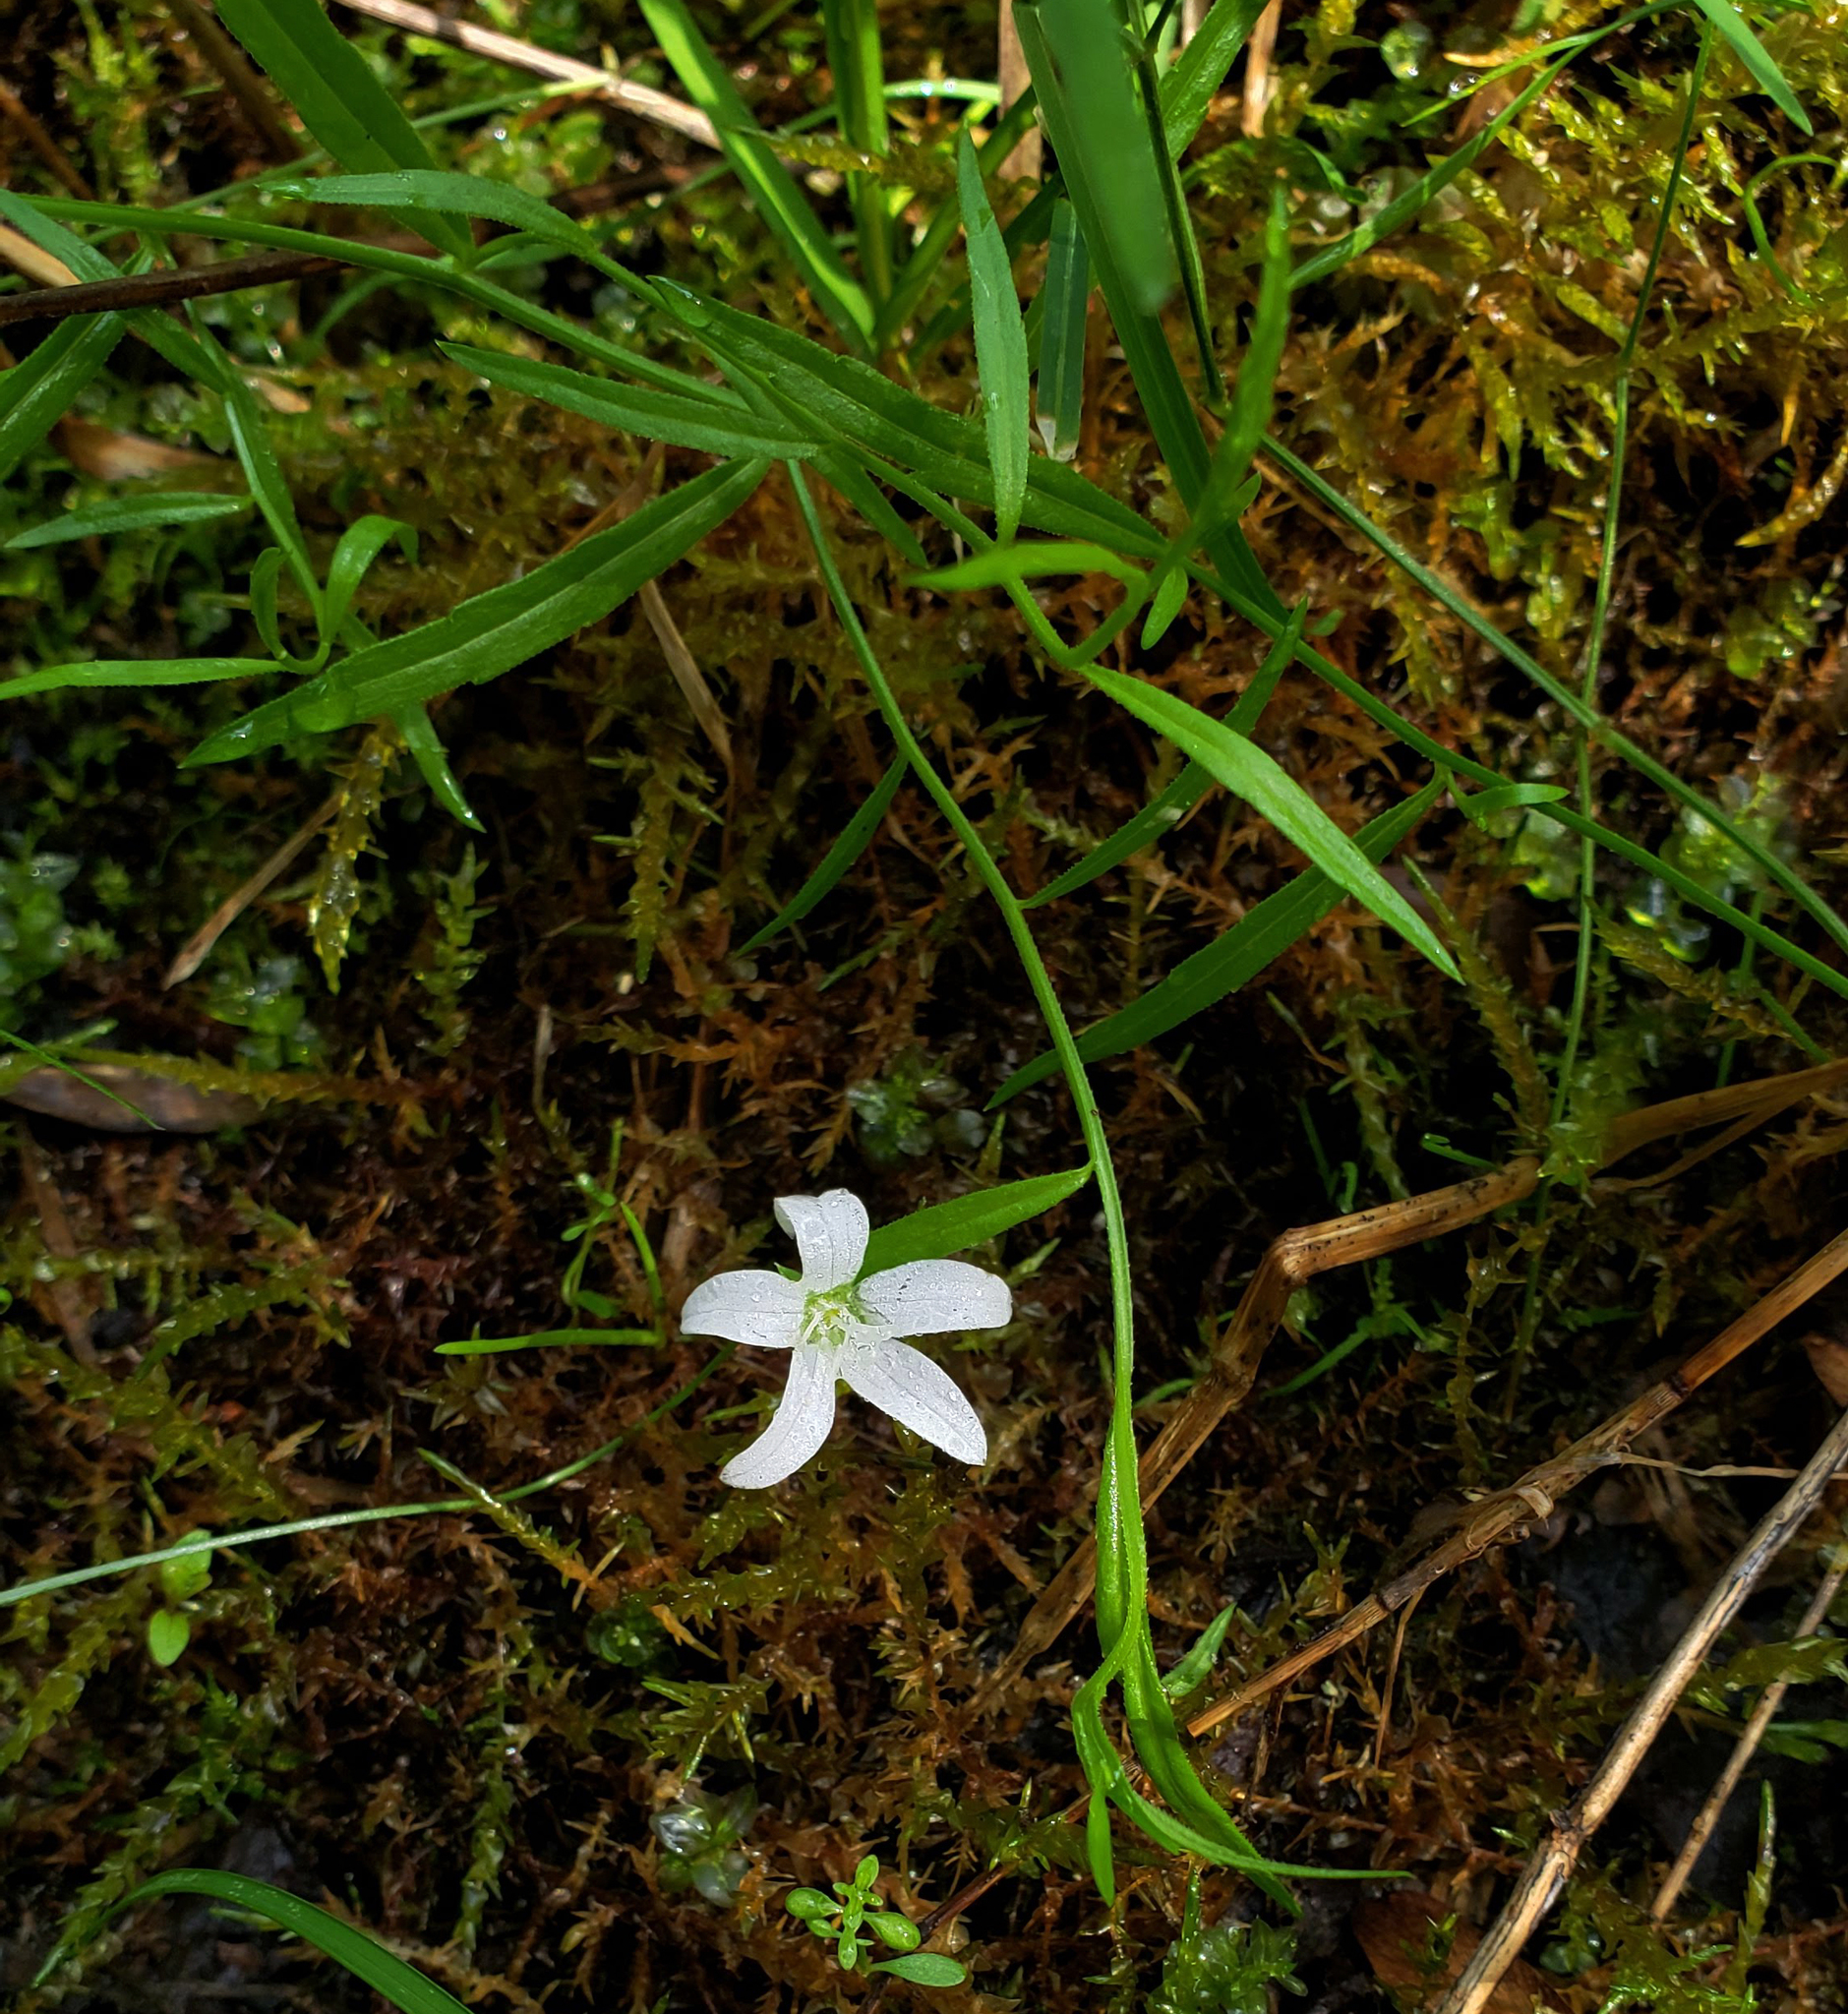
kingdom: Plantae
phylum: Tracheophyta
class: Magnoliopsida
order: Asterales
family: Campanulaceae
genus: Palustricodon
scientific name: Palustricodon aparinoides
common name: Bedstraw bellflower
